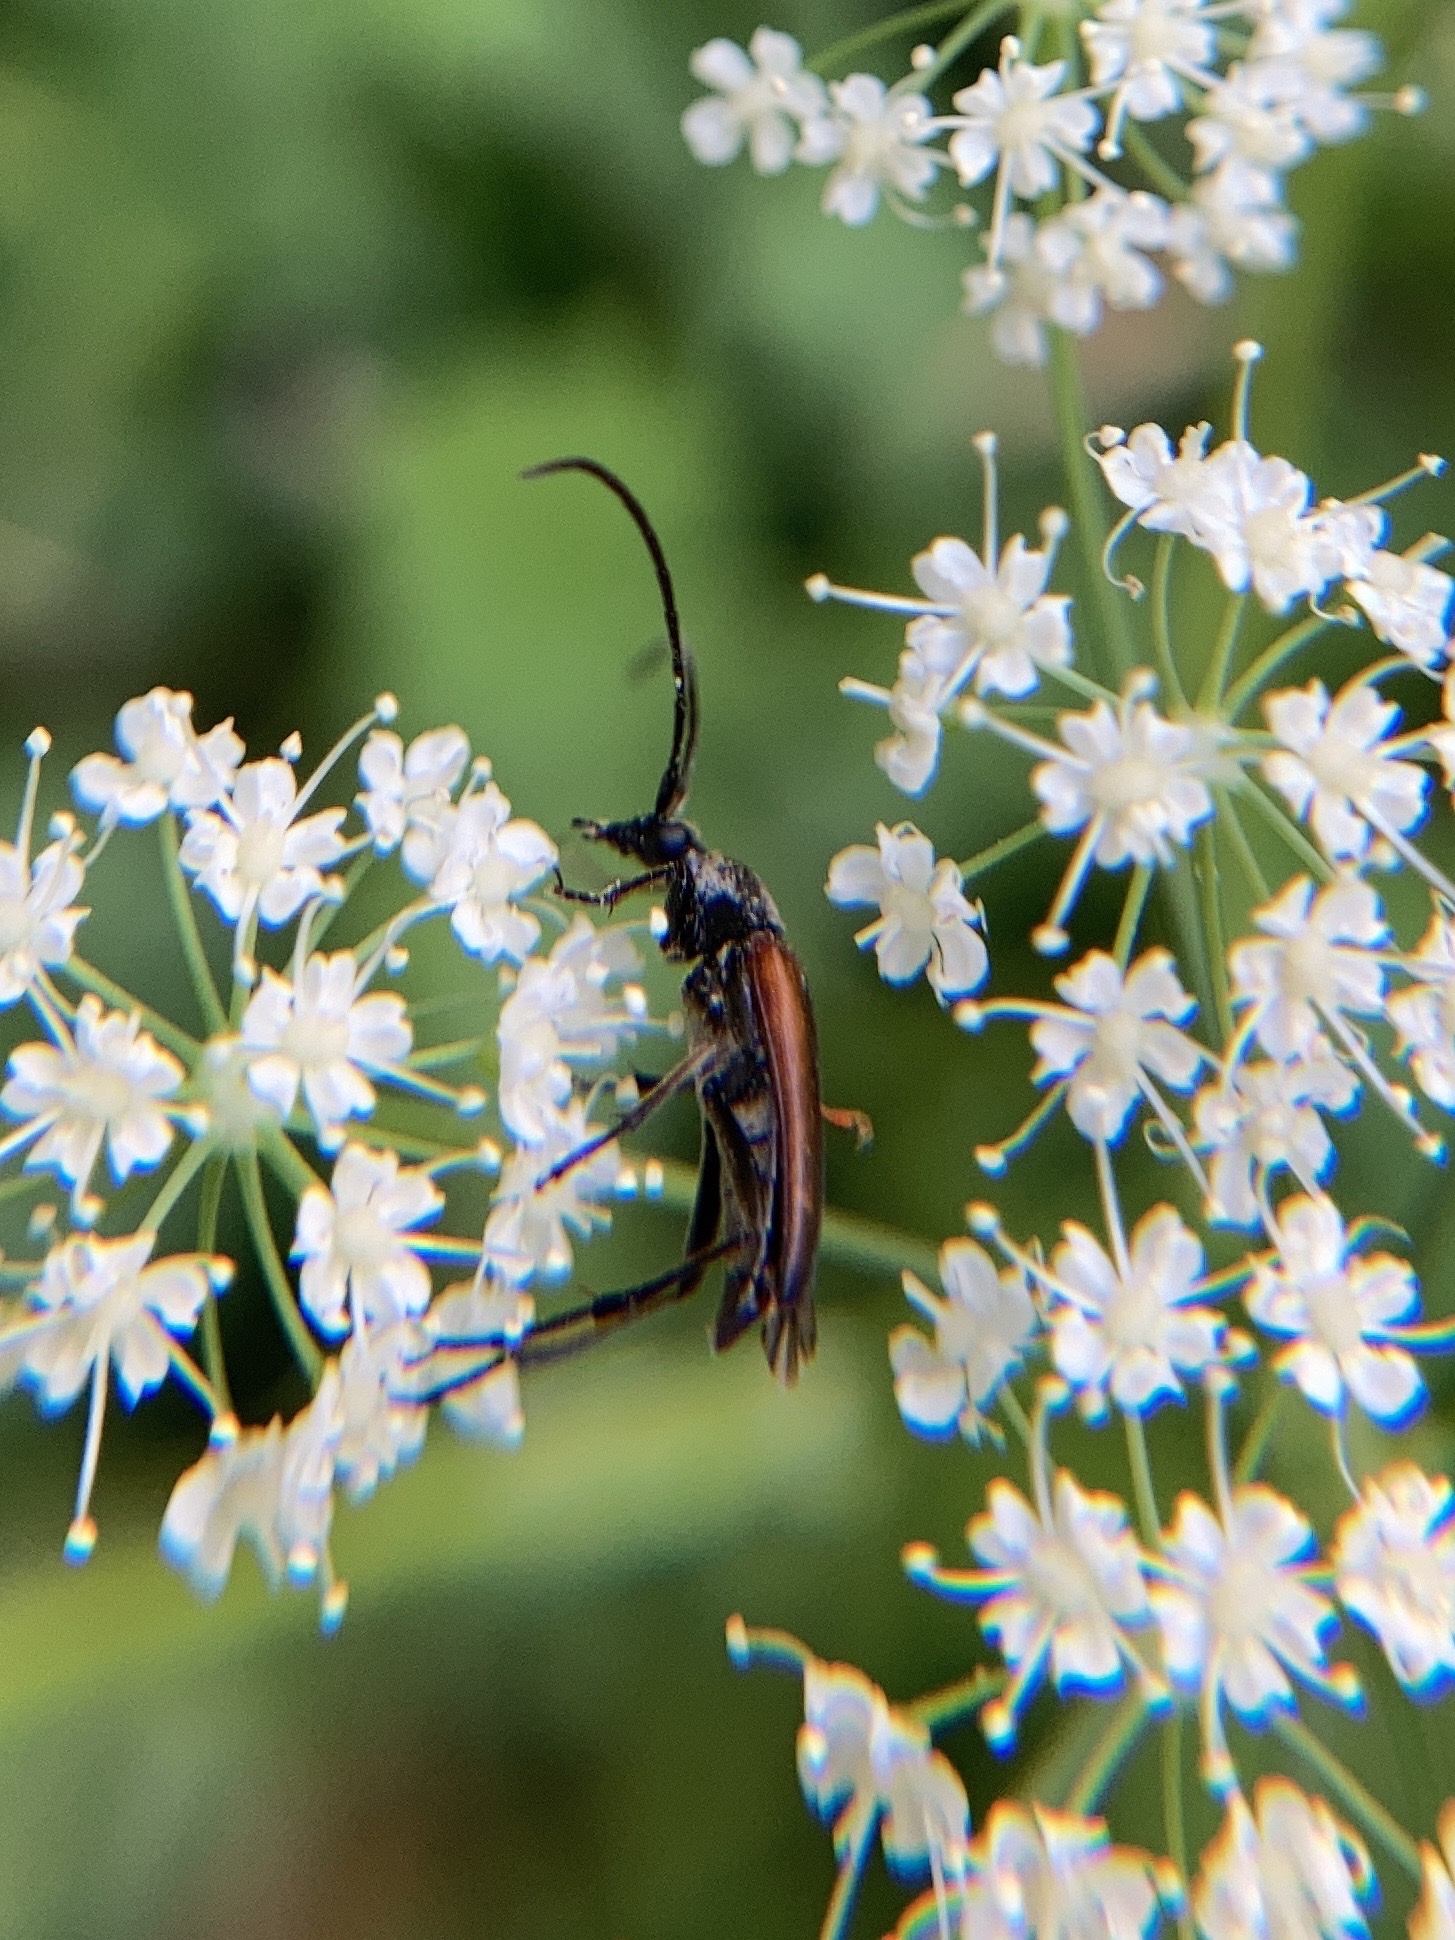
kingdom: Animalia
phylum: Arthropoda
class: Insecta
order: Coleoptera
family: Cerambycidae
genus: Stenurella
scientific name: Stenurella melanura
